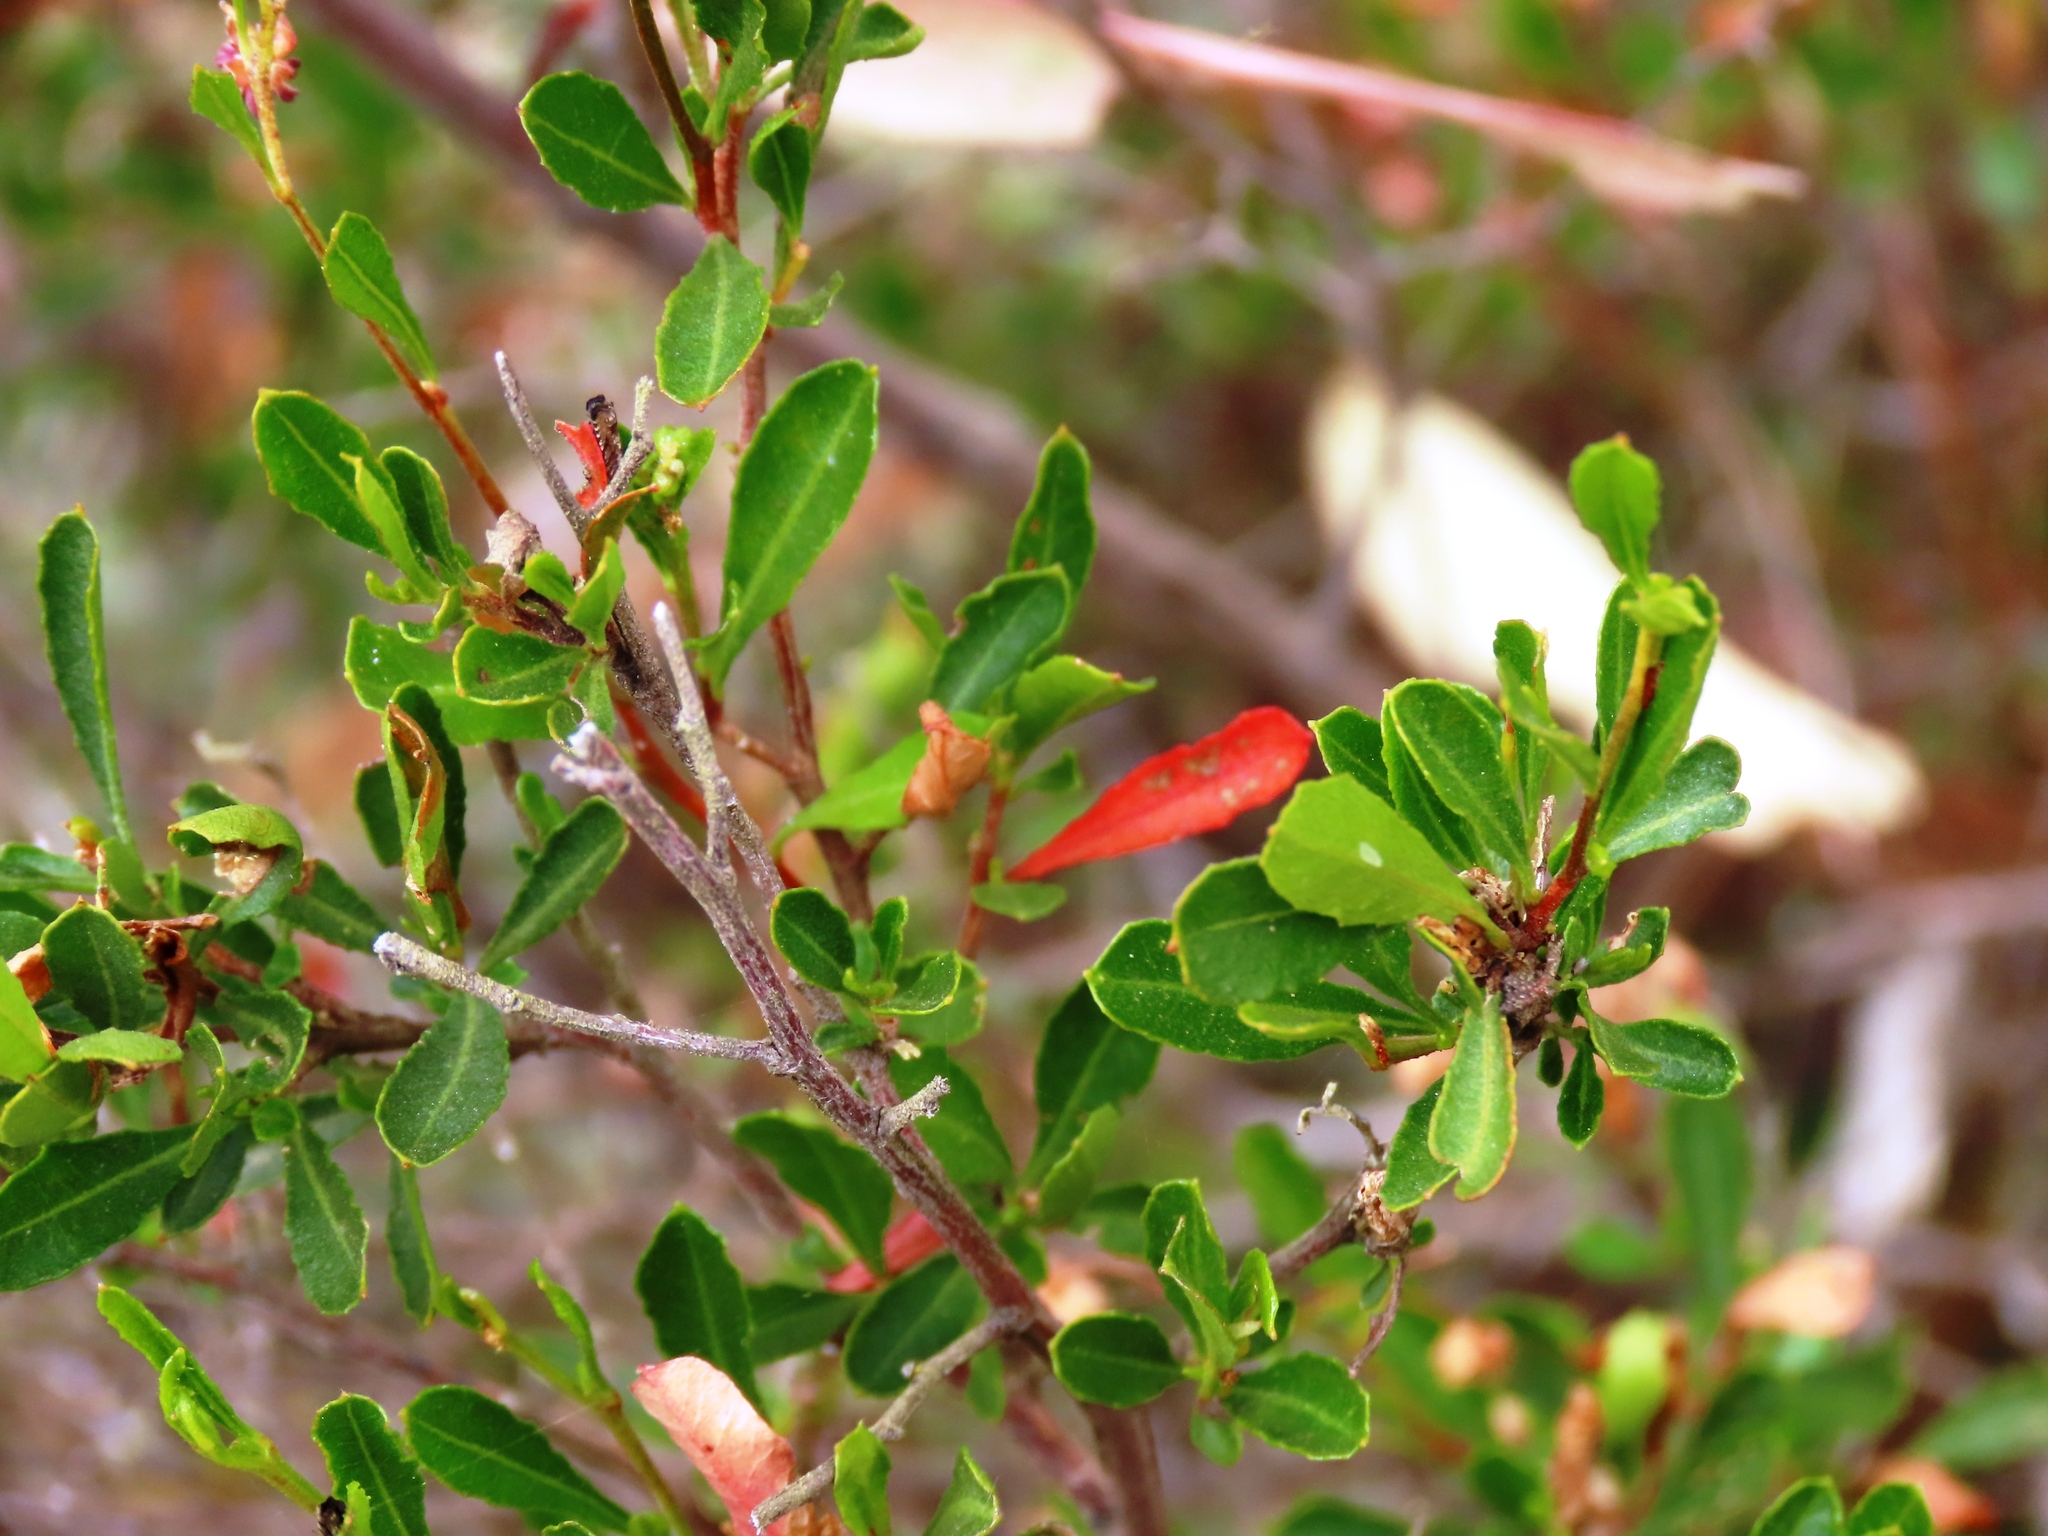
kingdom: Plantae
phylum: Tracheophyta
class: Magnoliopsida
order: Sapindales
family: Sapindaceae
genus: Dodonaea
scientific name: Dodonaea viscosa
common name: Hopbush
